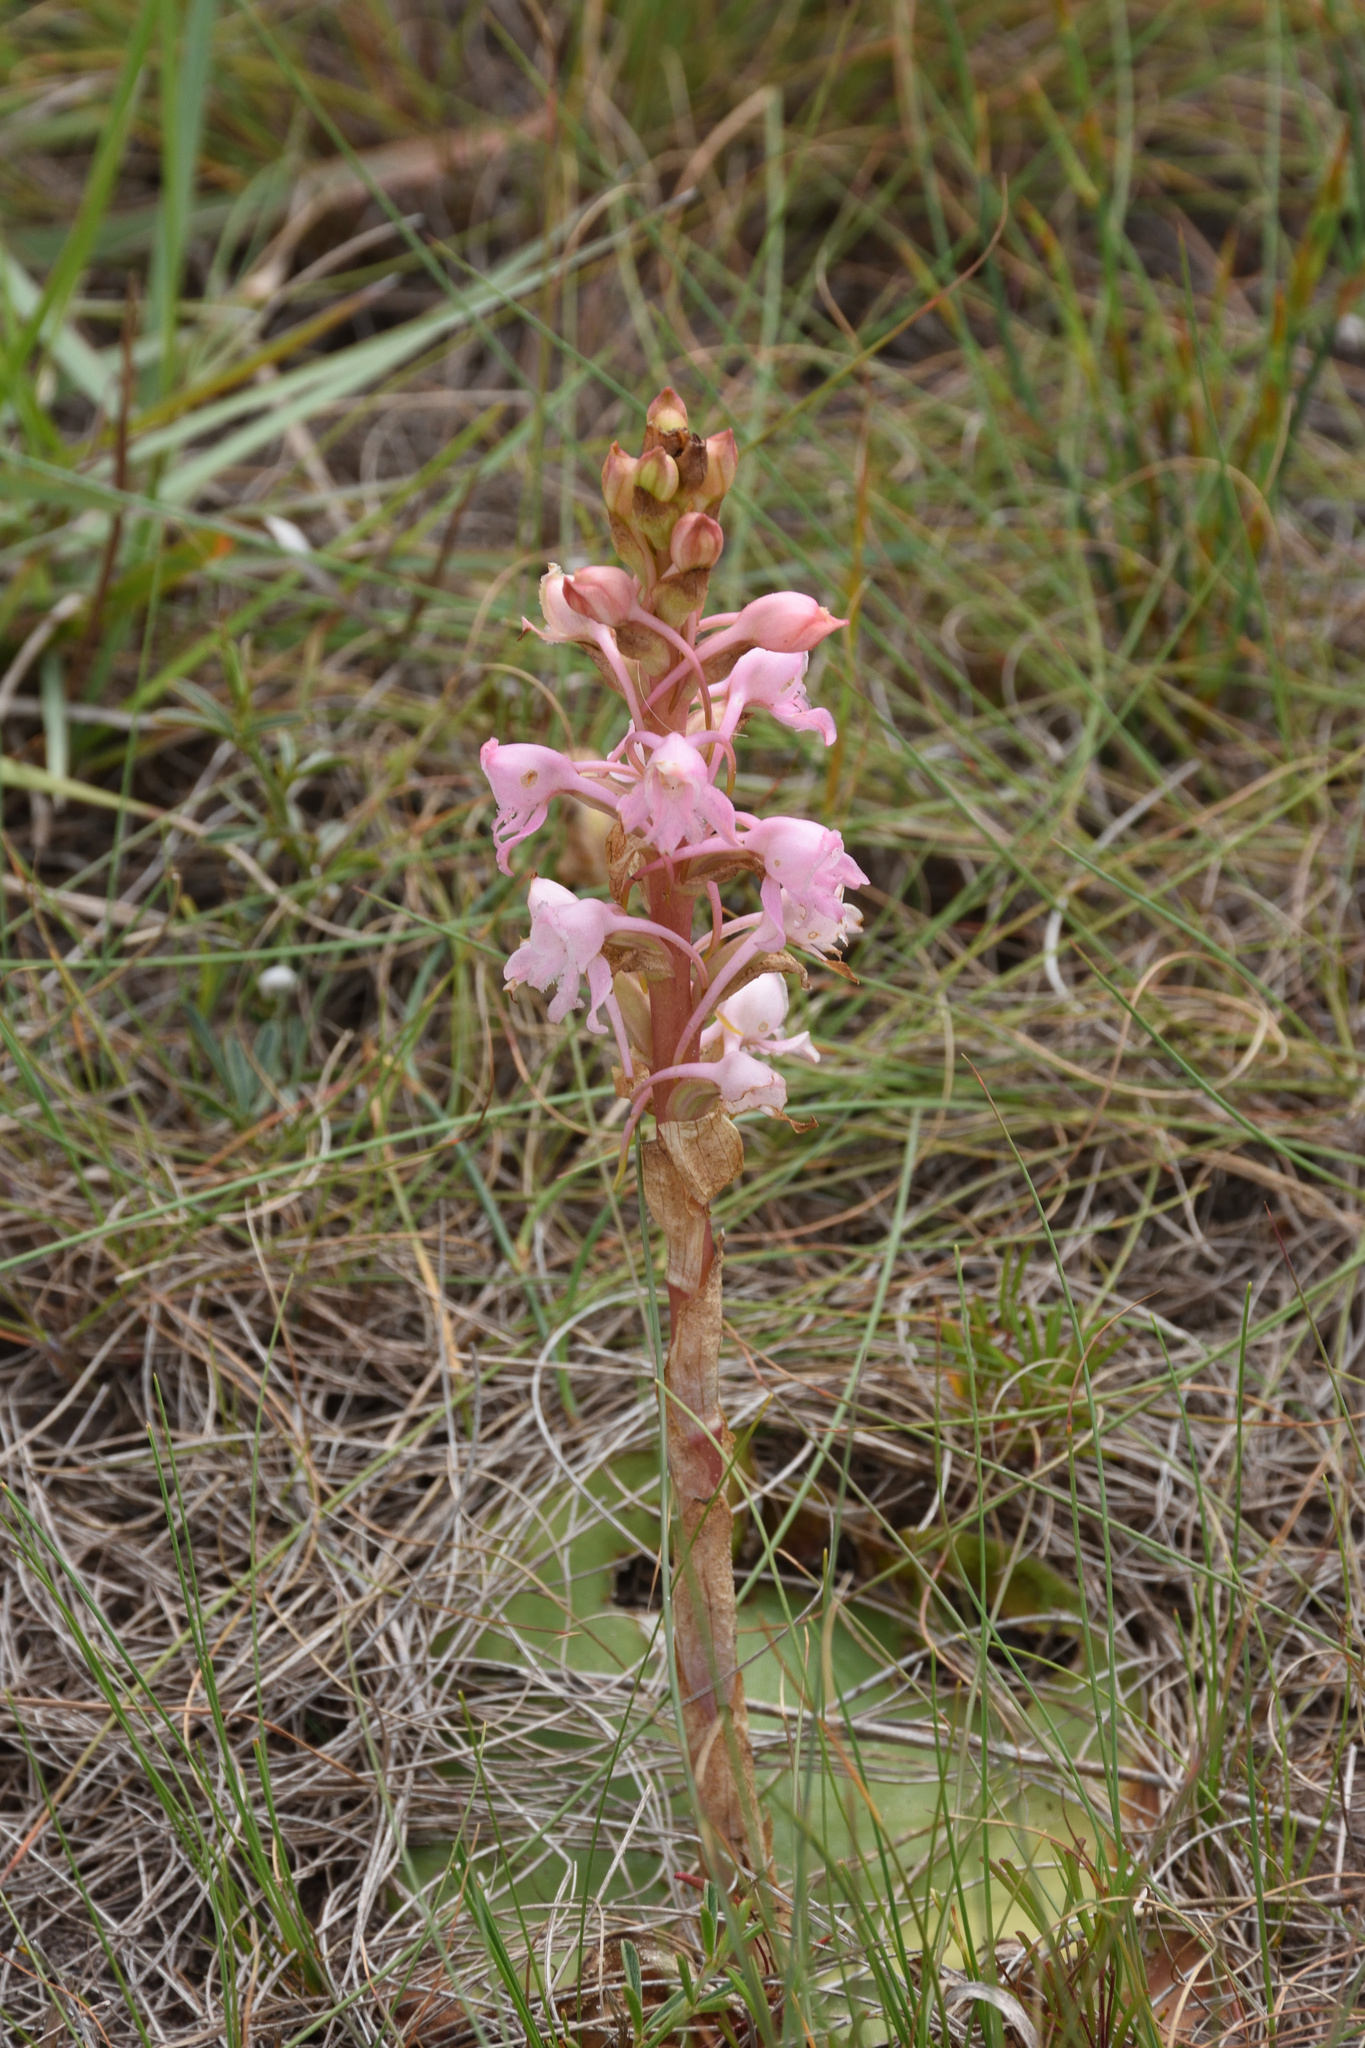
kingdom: Plantae
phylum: Tracheophyta
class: Liliopsida
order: Asparagales
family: Orchidaceae
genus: Satyrium
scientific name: Satyrium membranaceum
